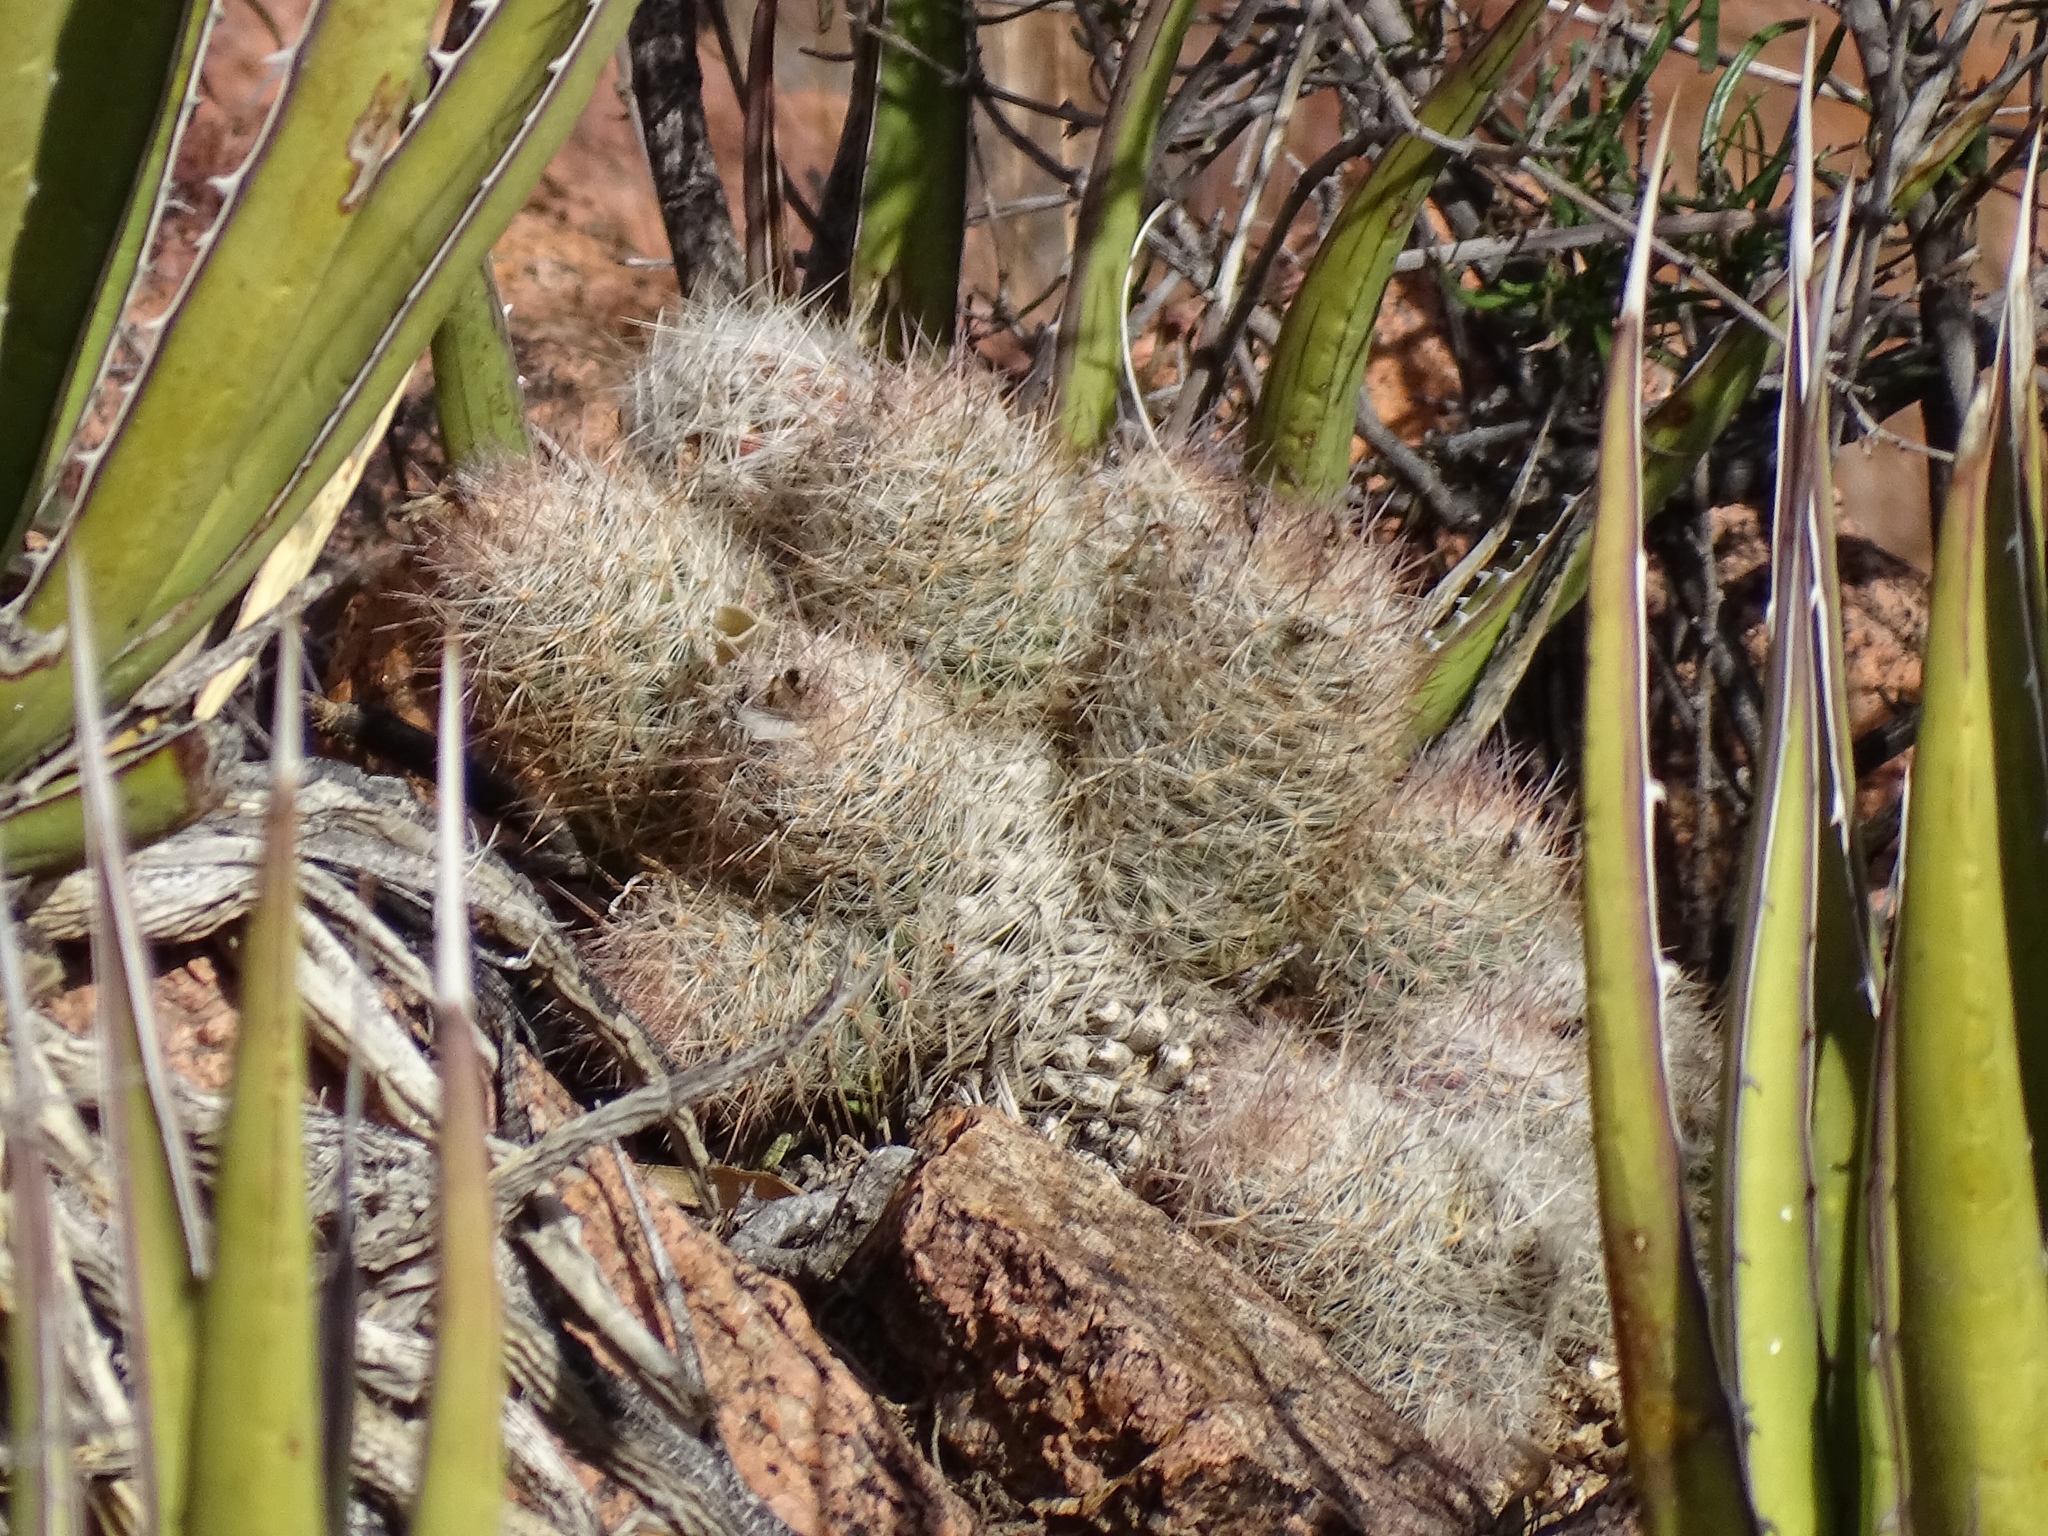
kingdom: Plantae
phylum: Tracheophyta
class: Magnoliopsida
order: Caryophyllales
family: Cactaceae
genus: Pelecyphora
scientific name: Pelecyphora tuberculosa
